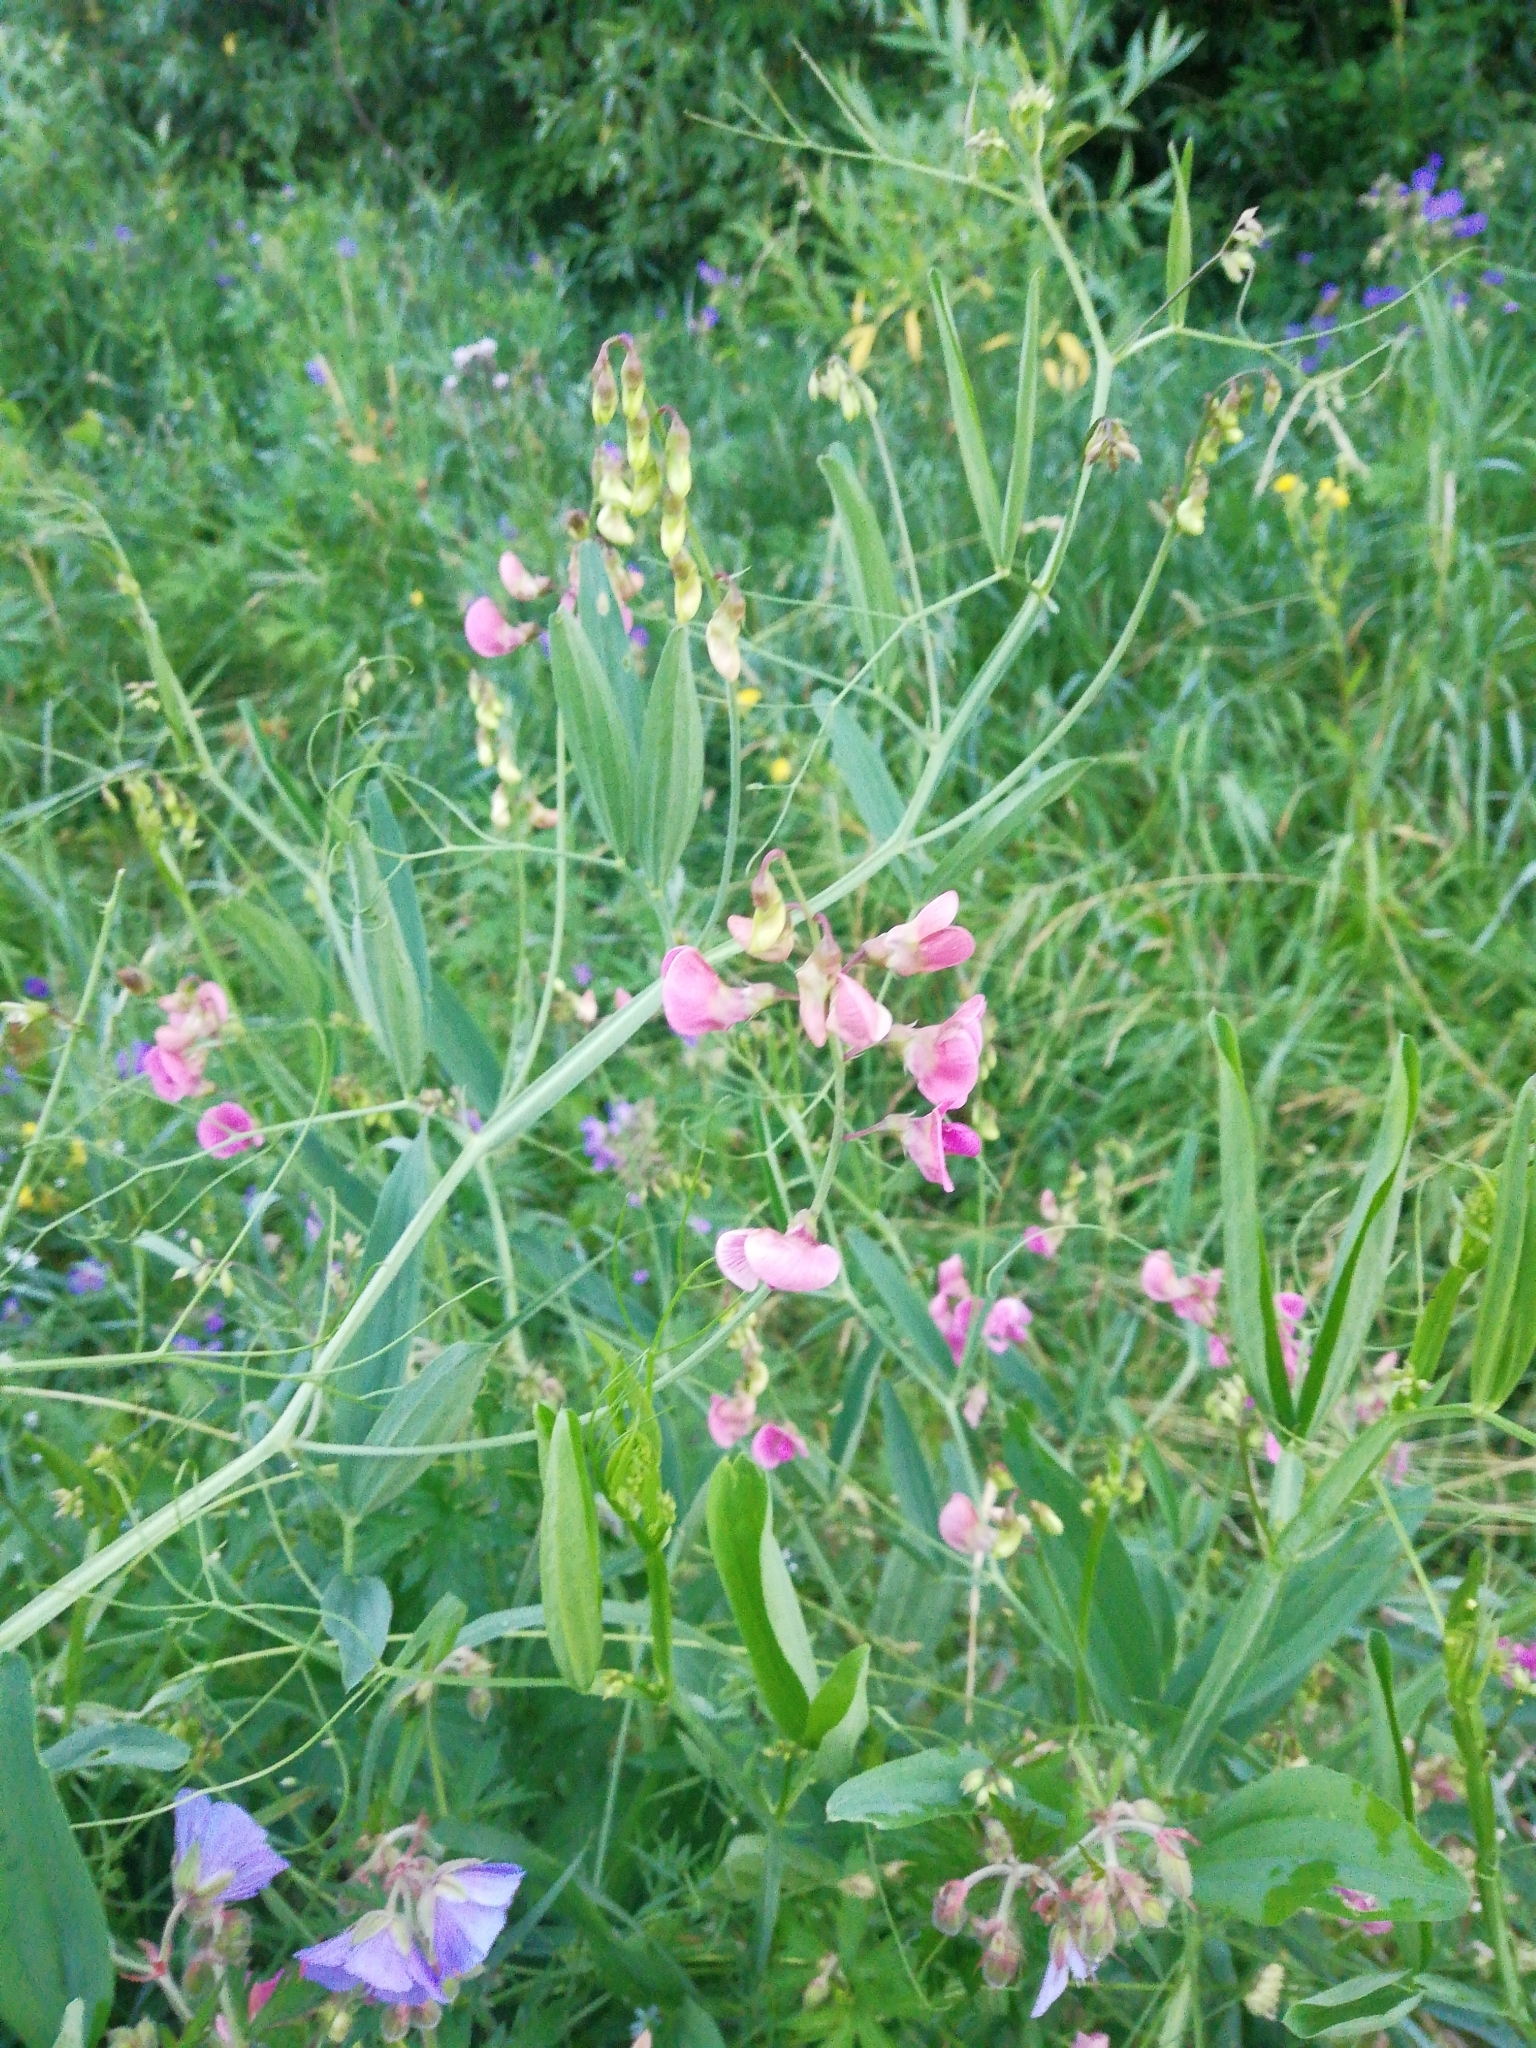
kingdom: Plantae
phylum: Tracheophyta
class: Magnoliopsida
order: Fabales
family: Fabaceae
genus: Lathyrus
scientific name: Lathyrus sylvestris
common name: Flat pea
